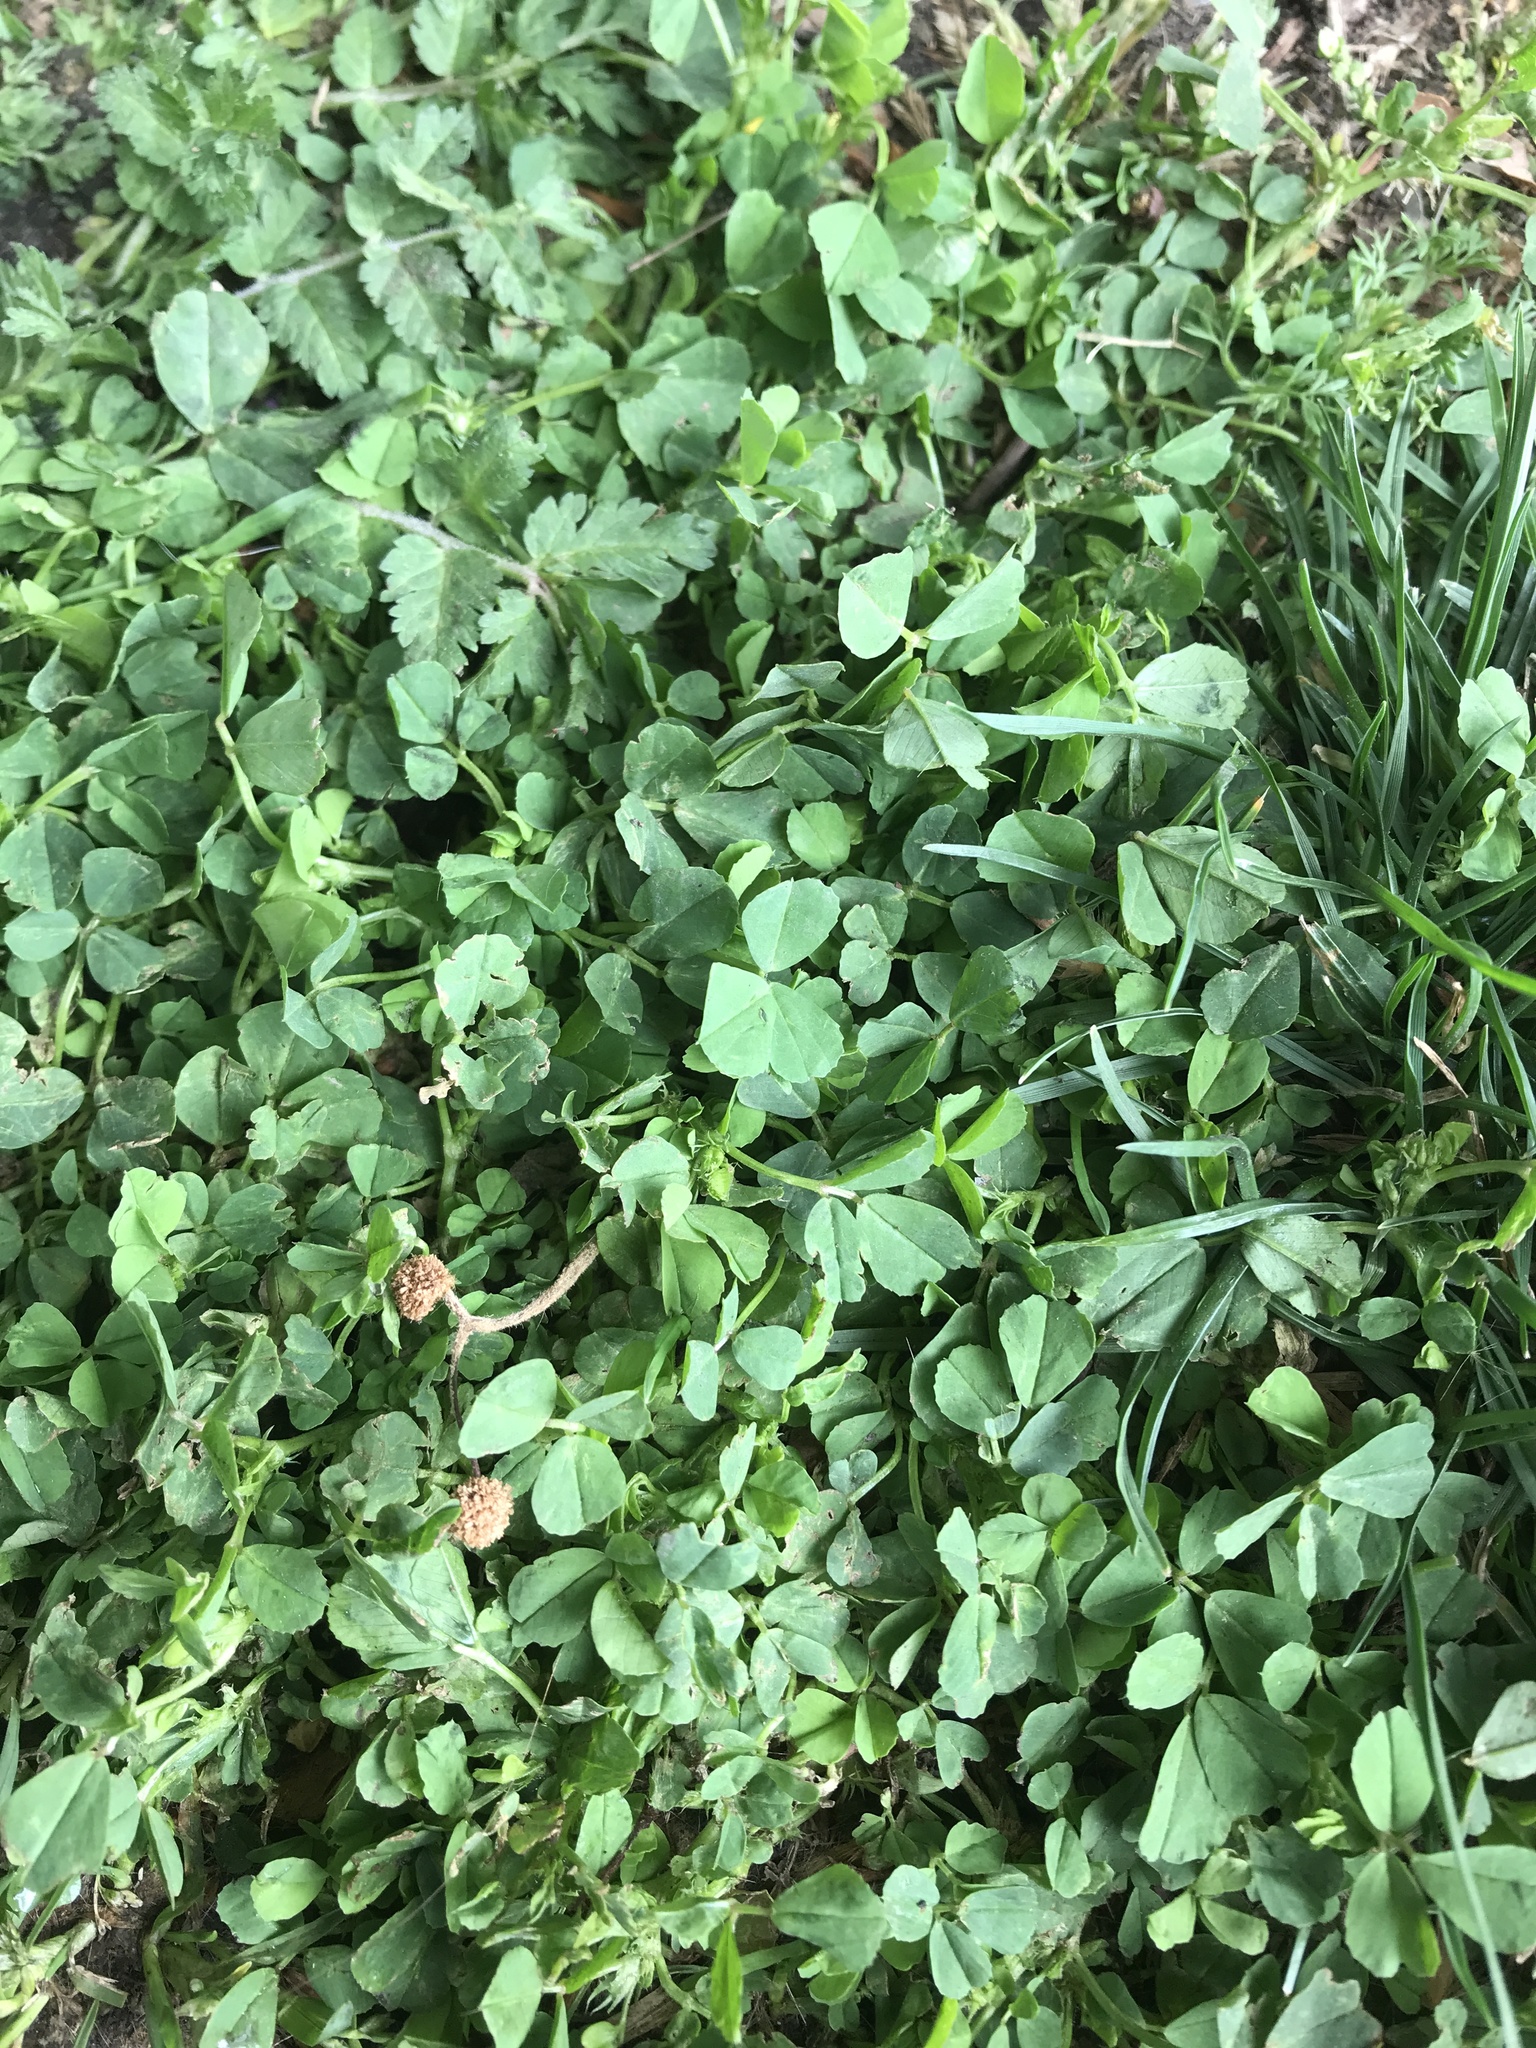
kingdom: Plantae
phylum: Tracheophyta
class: Magnoliopsida
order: Fabales
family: Fabaceae
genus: Medicago
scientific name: Medicago polymorpha
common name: Burclover
